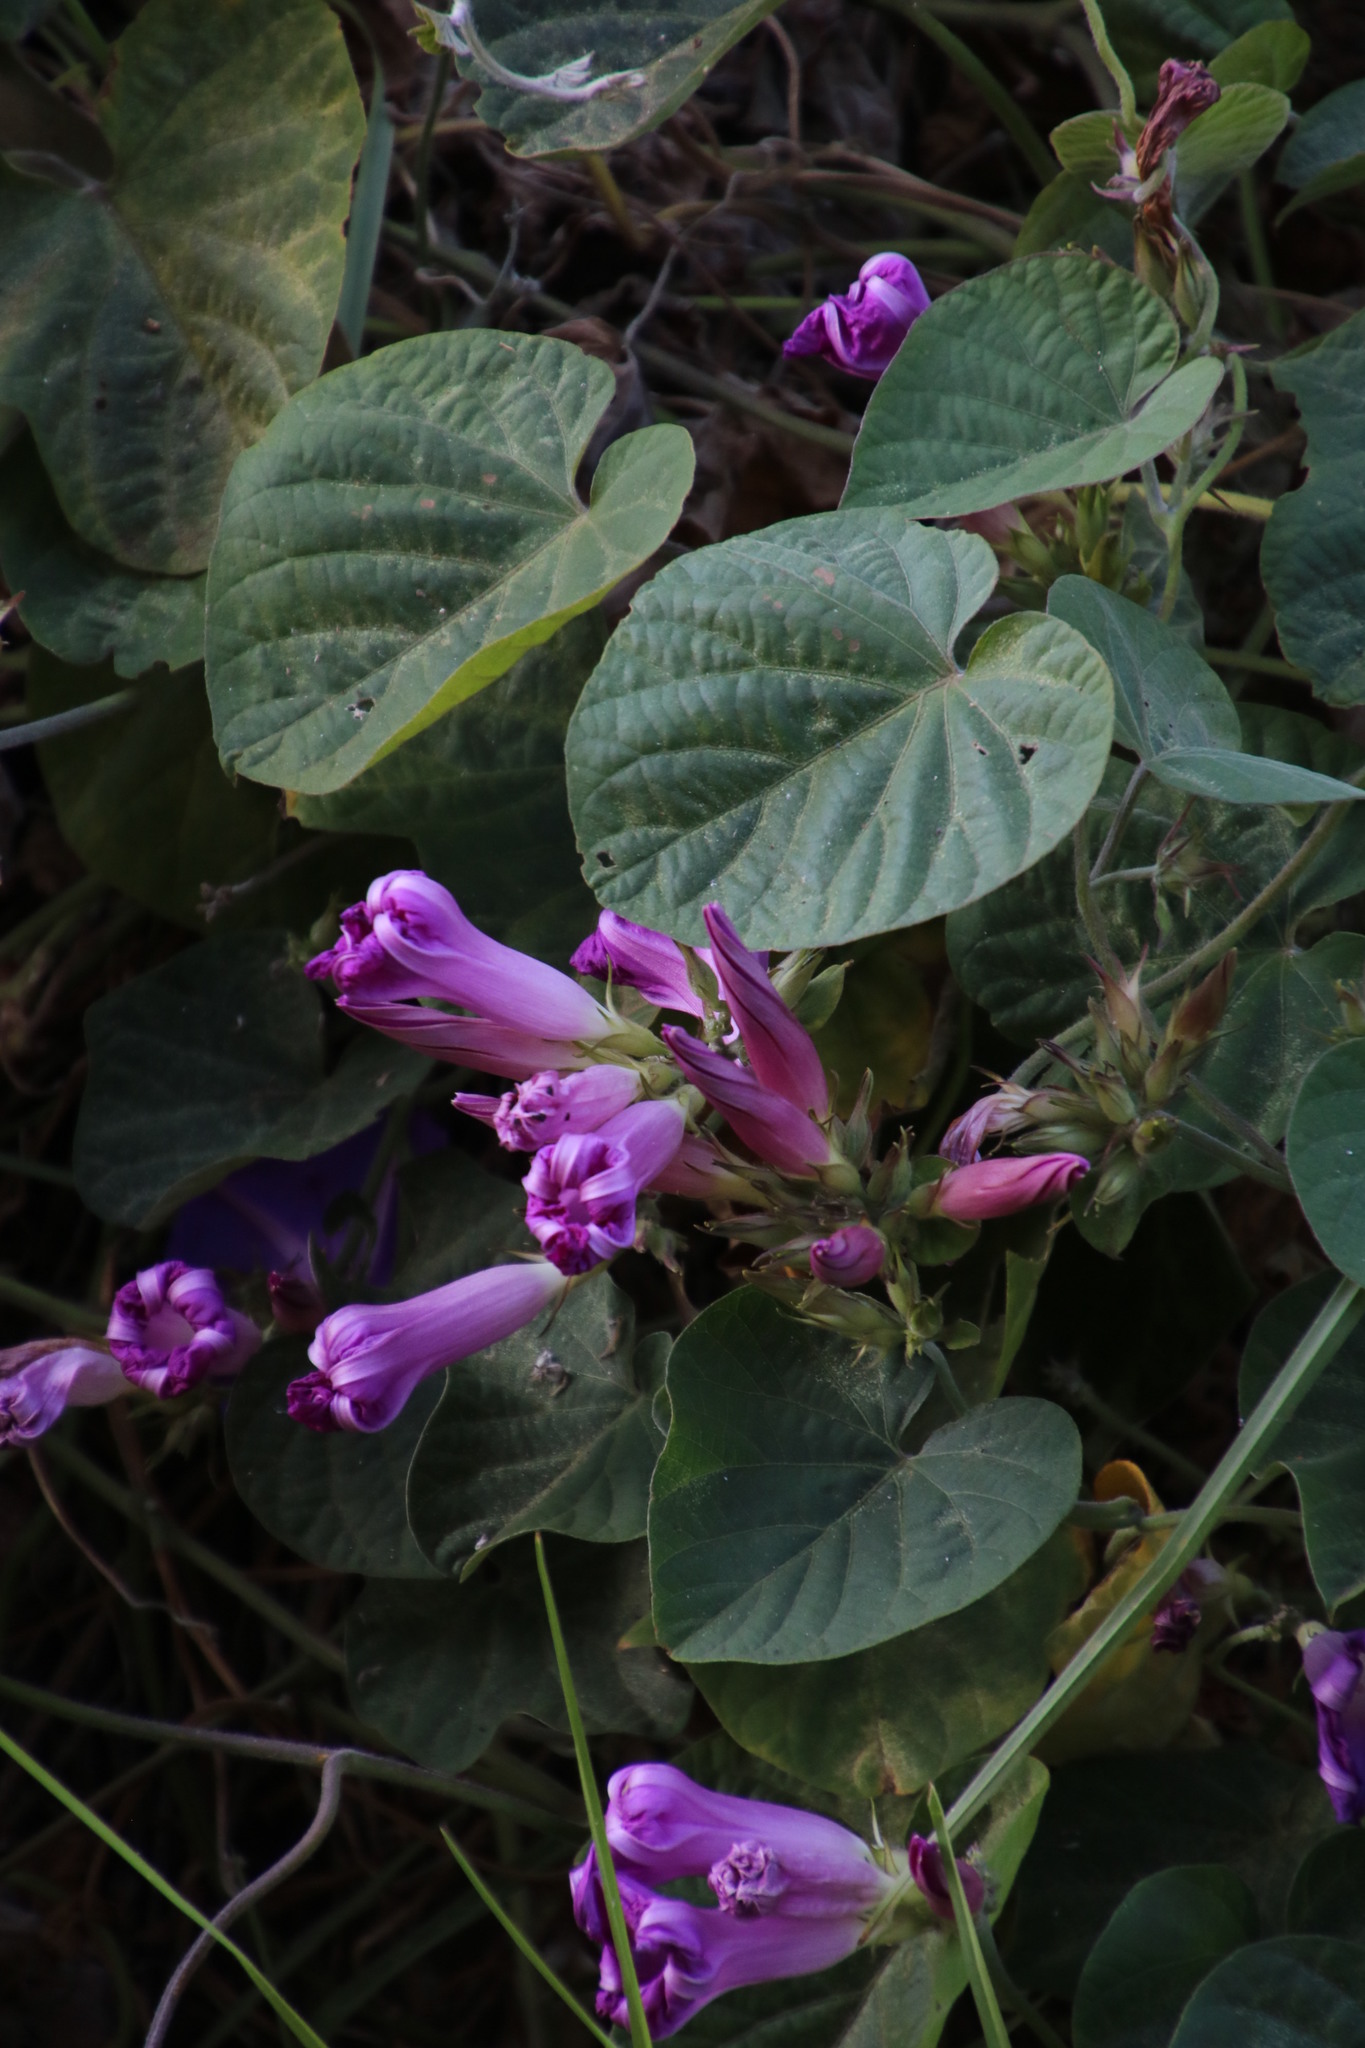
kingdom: Plantae
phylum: Tracheophyta
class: Magnoliopsida
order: Solanales
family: Convolvulaceae
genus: Ipomoea
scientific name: Ipomoea indica
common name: Blue dawnflower
